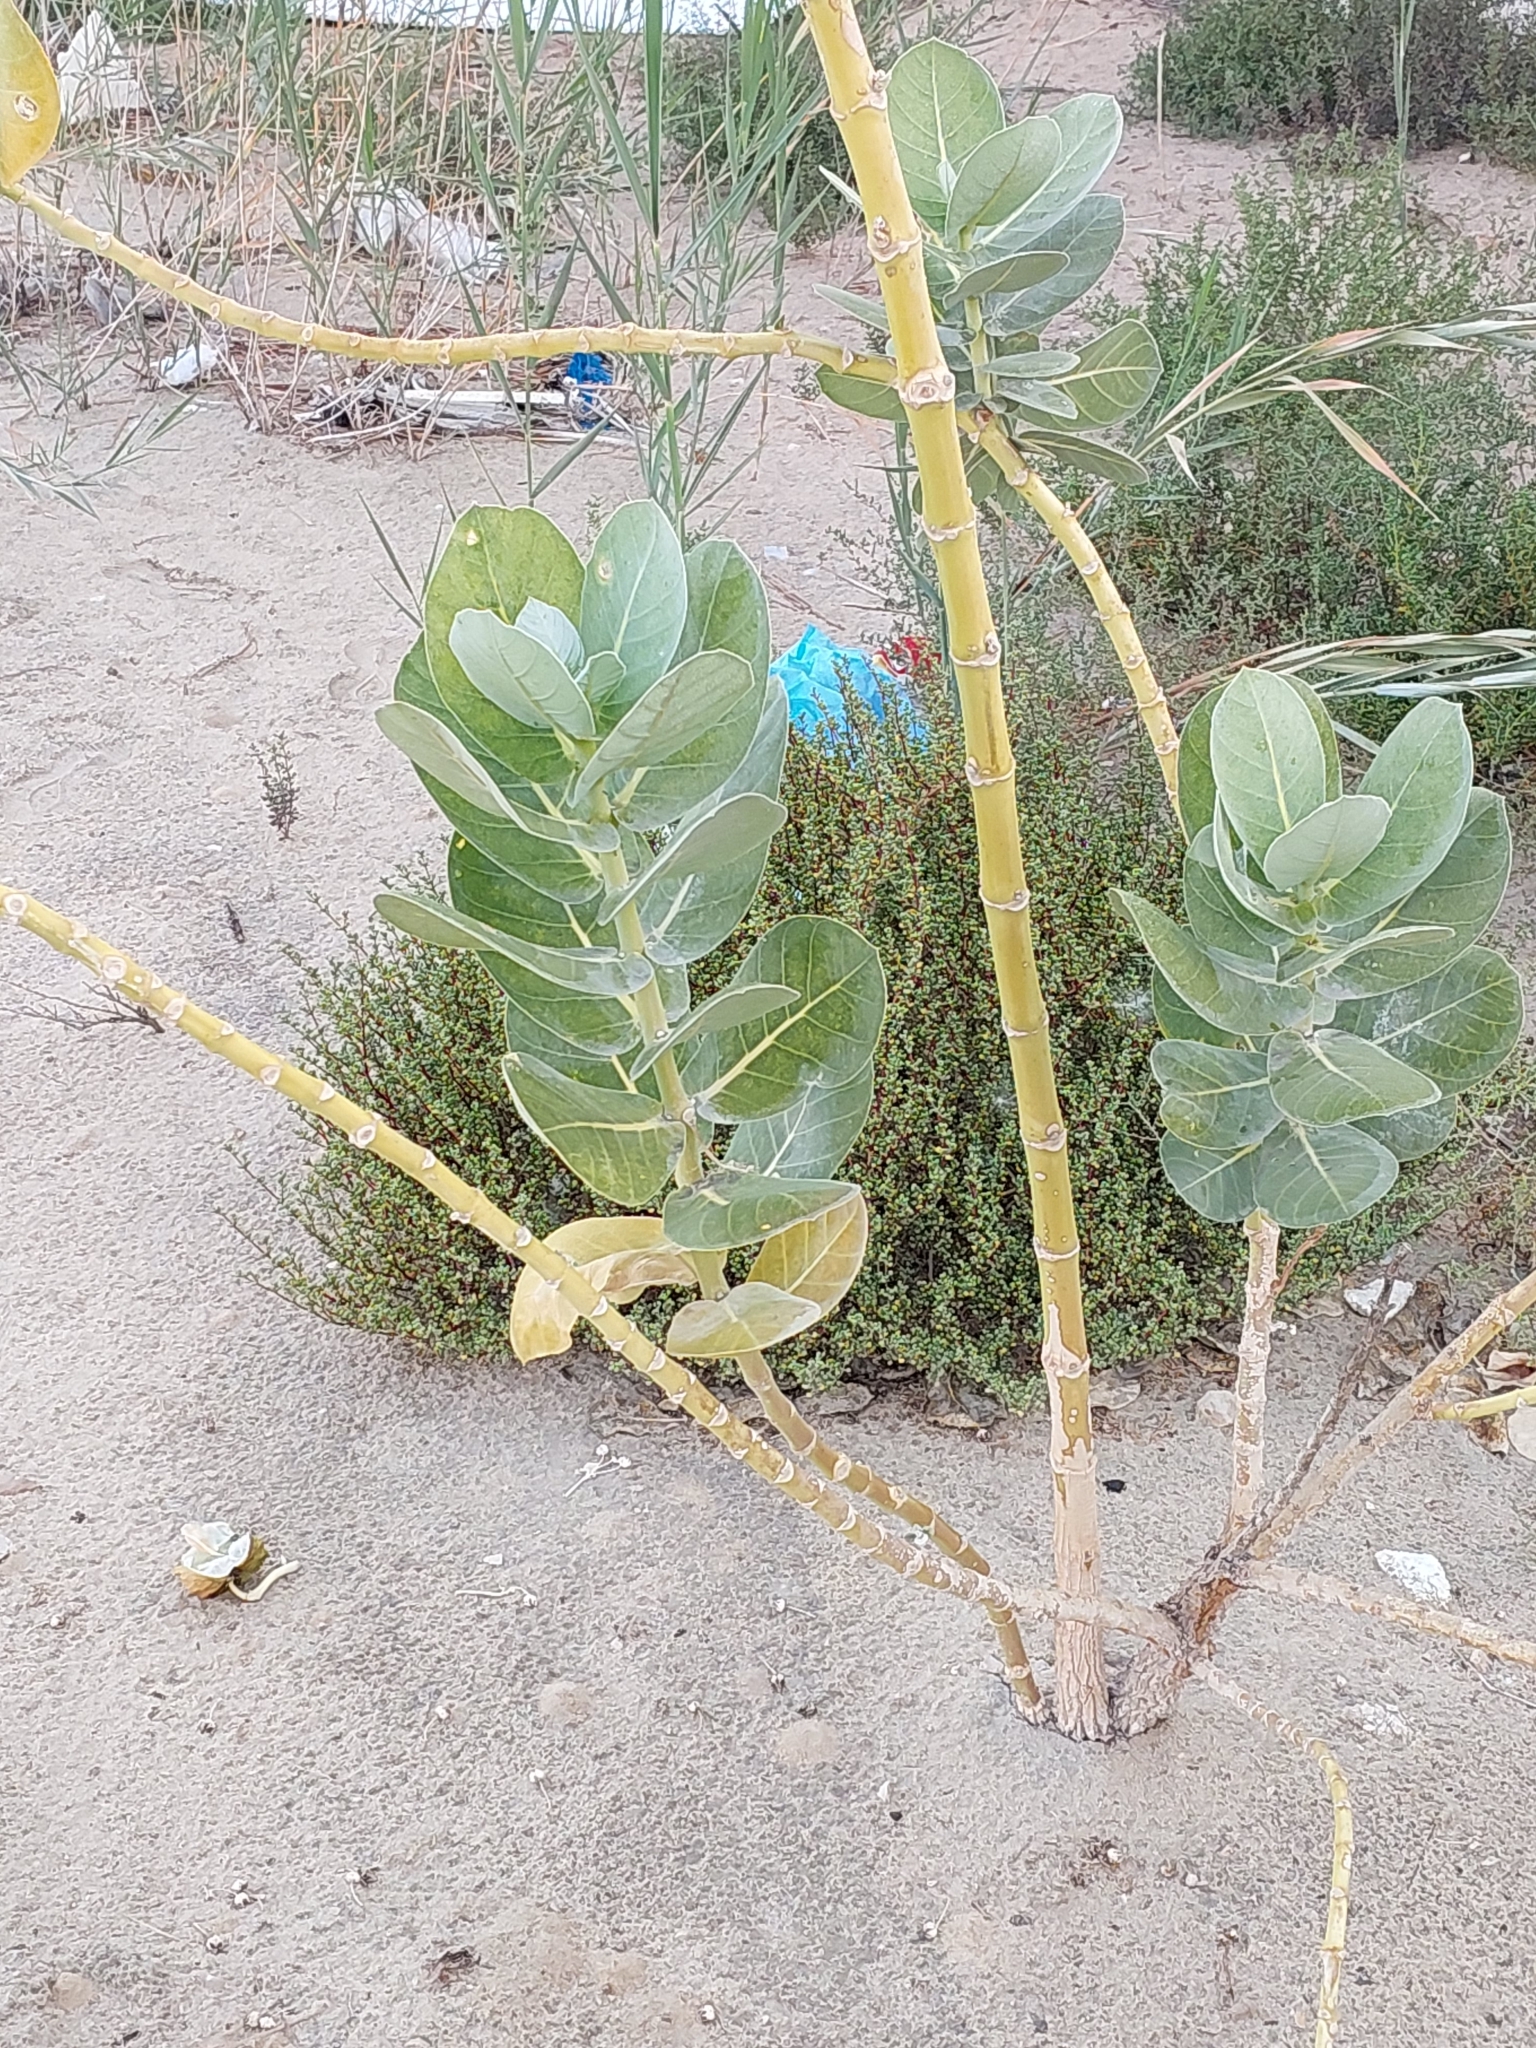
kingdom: Plantae
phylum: Tracheophyta
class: Magnoliopsida
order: Gentianales
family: Apocynaceae
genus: Calotropis
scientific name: Calotropis procera
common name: Roostertree
